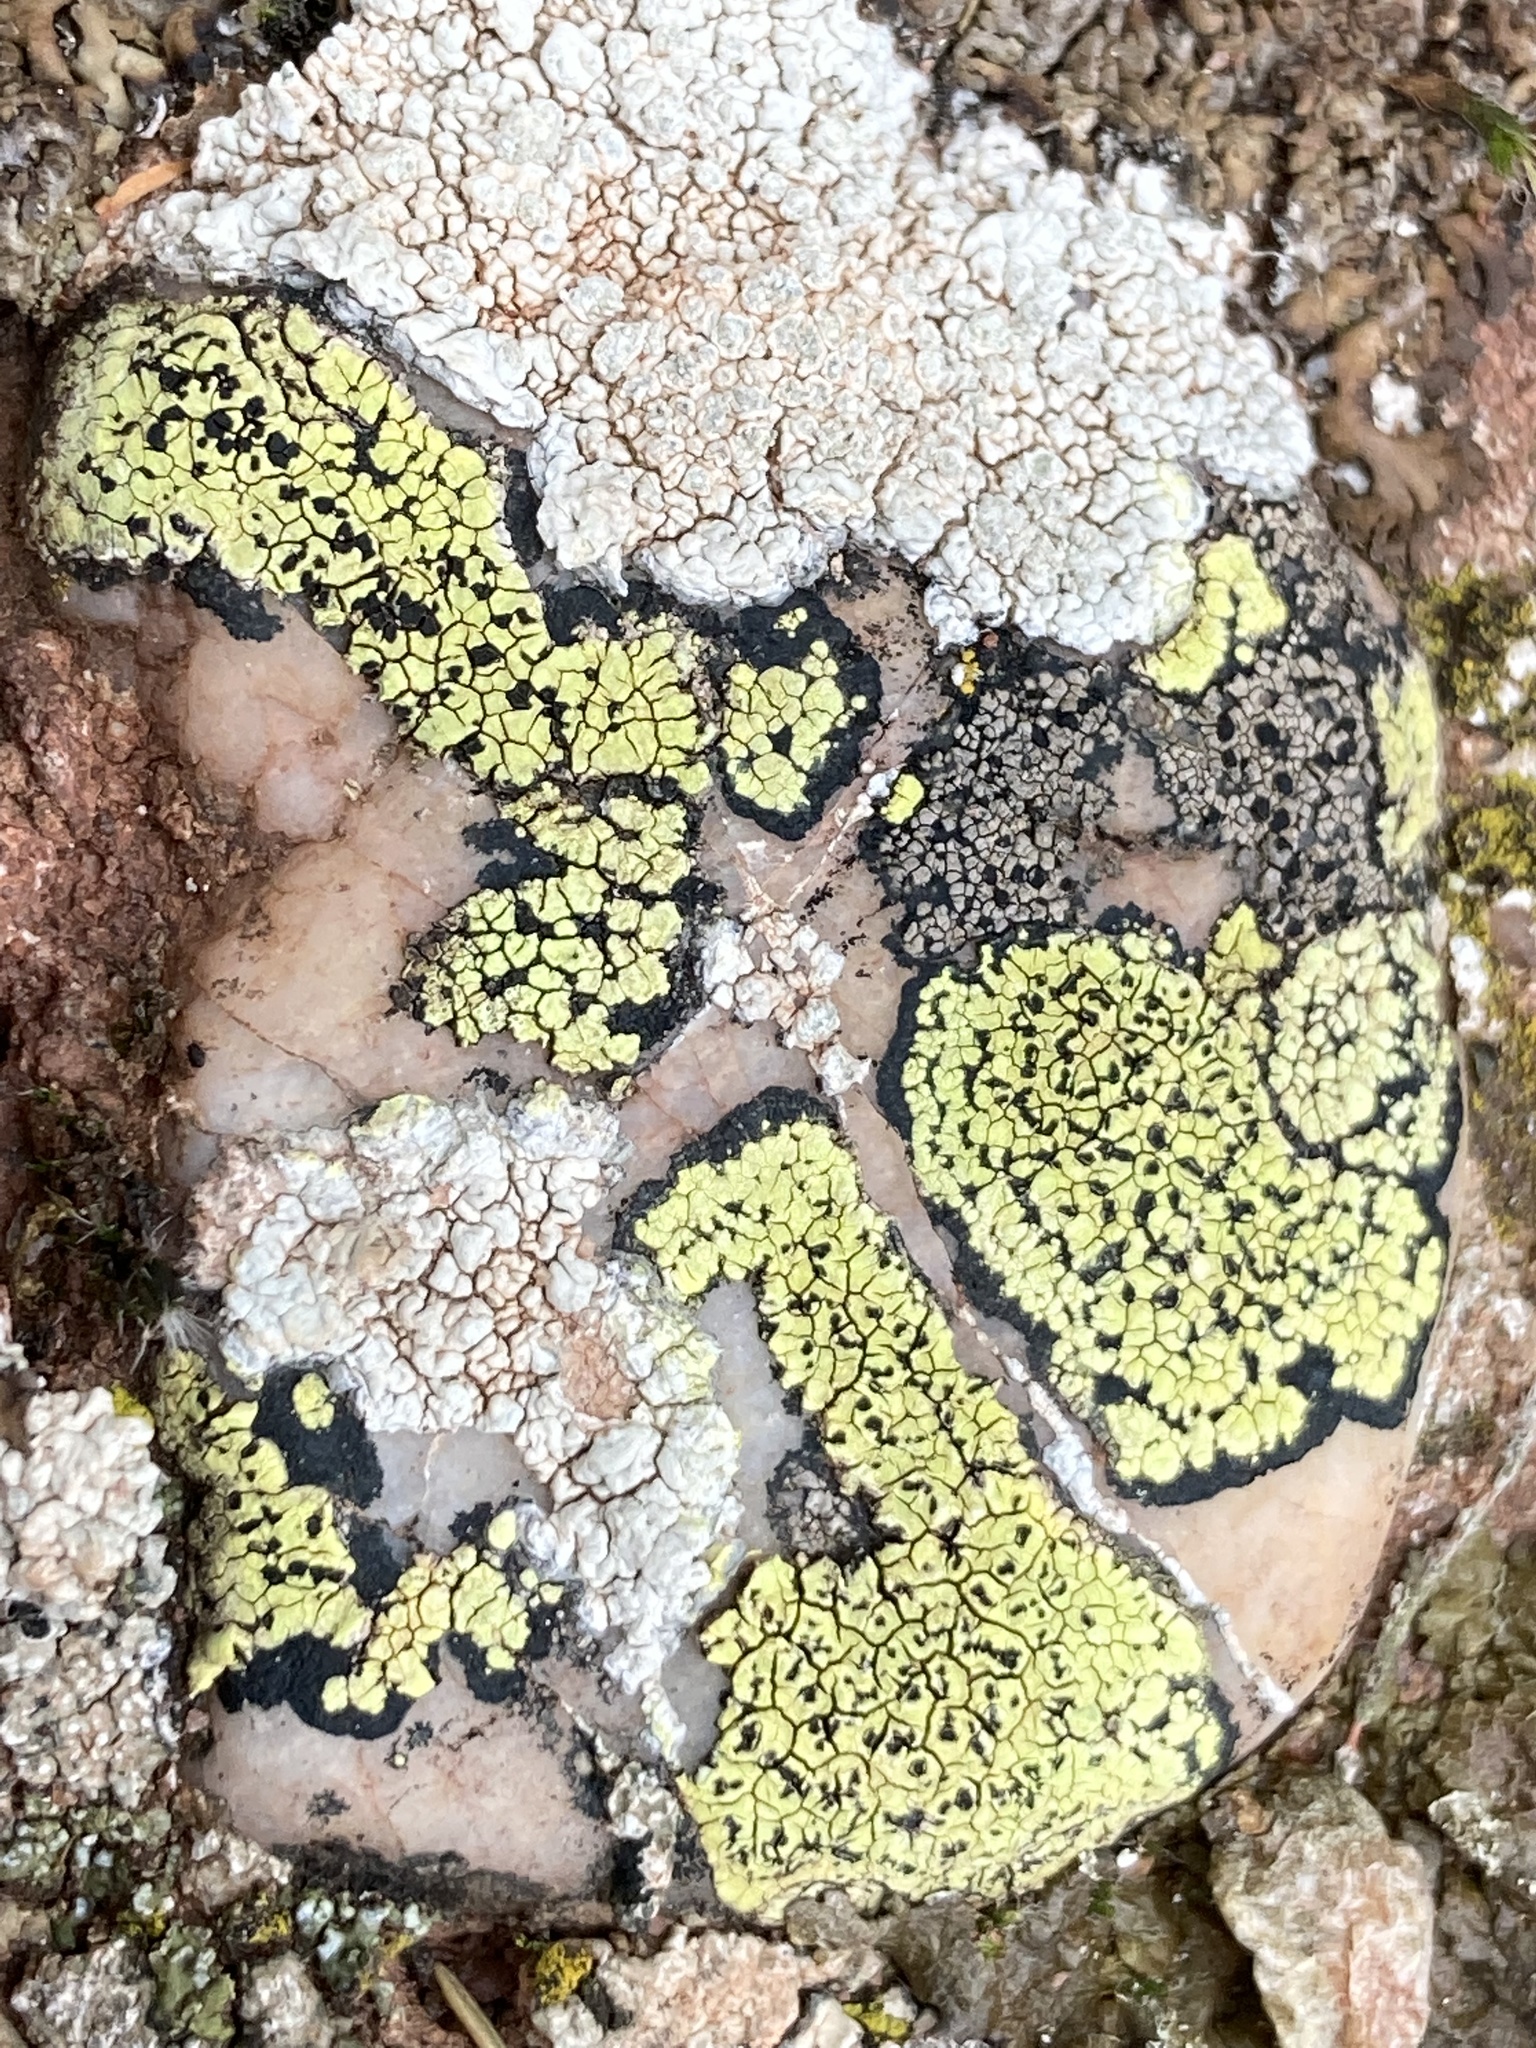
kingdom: Fungi
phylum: Ascomycota
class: Lecanoromycetes
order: Rhizocarpales
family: Rhizocarpaceae
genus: Rhizocarpon
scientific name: Rhizocarpon geographicum
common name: Yellow map lichen
